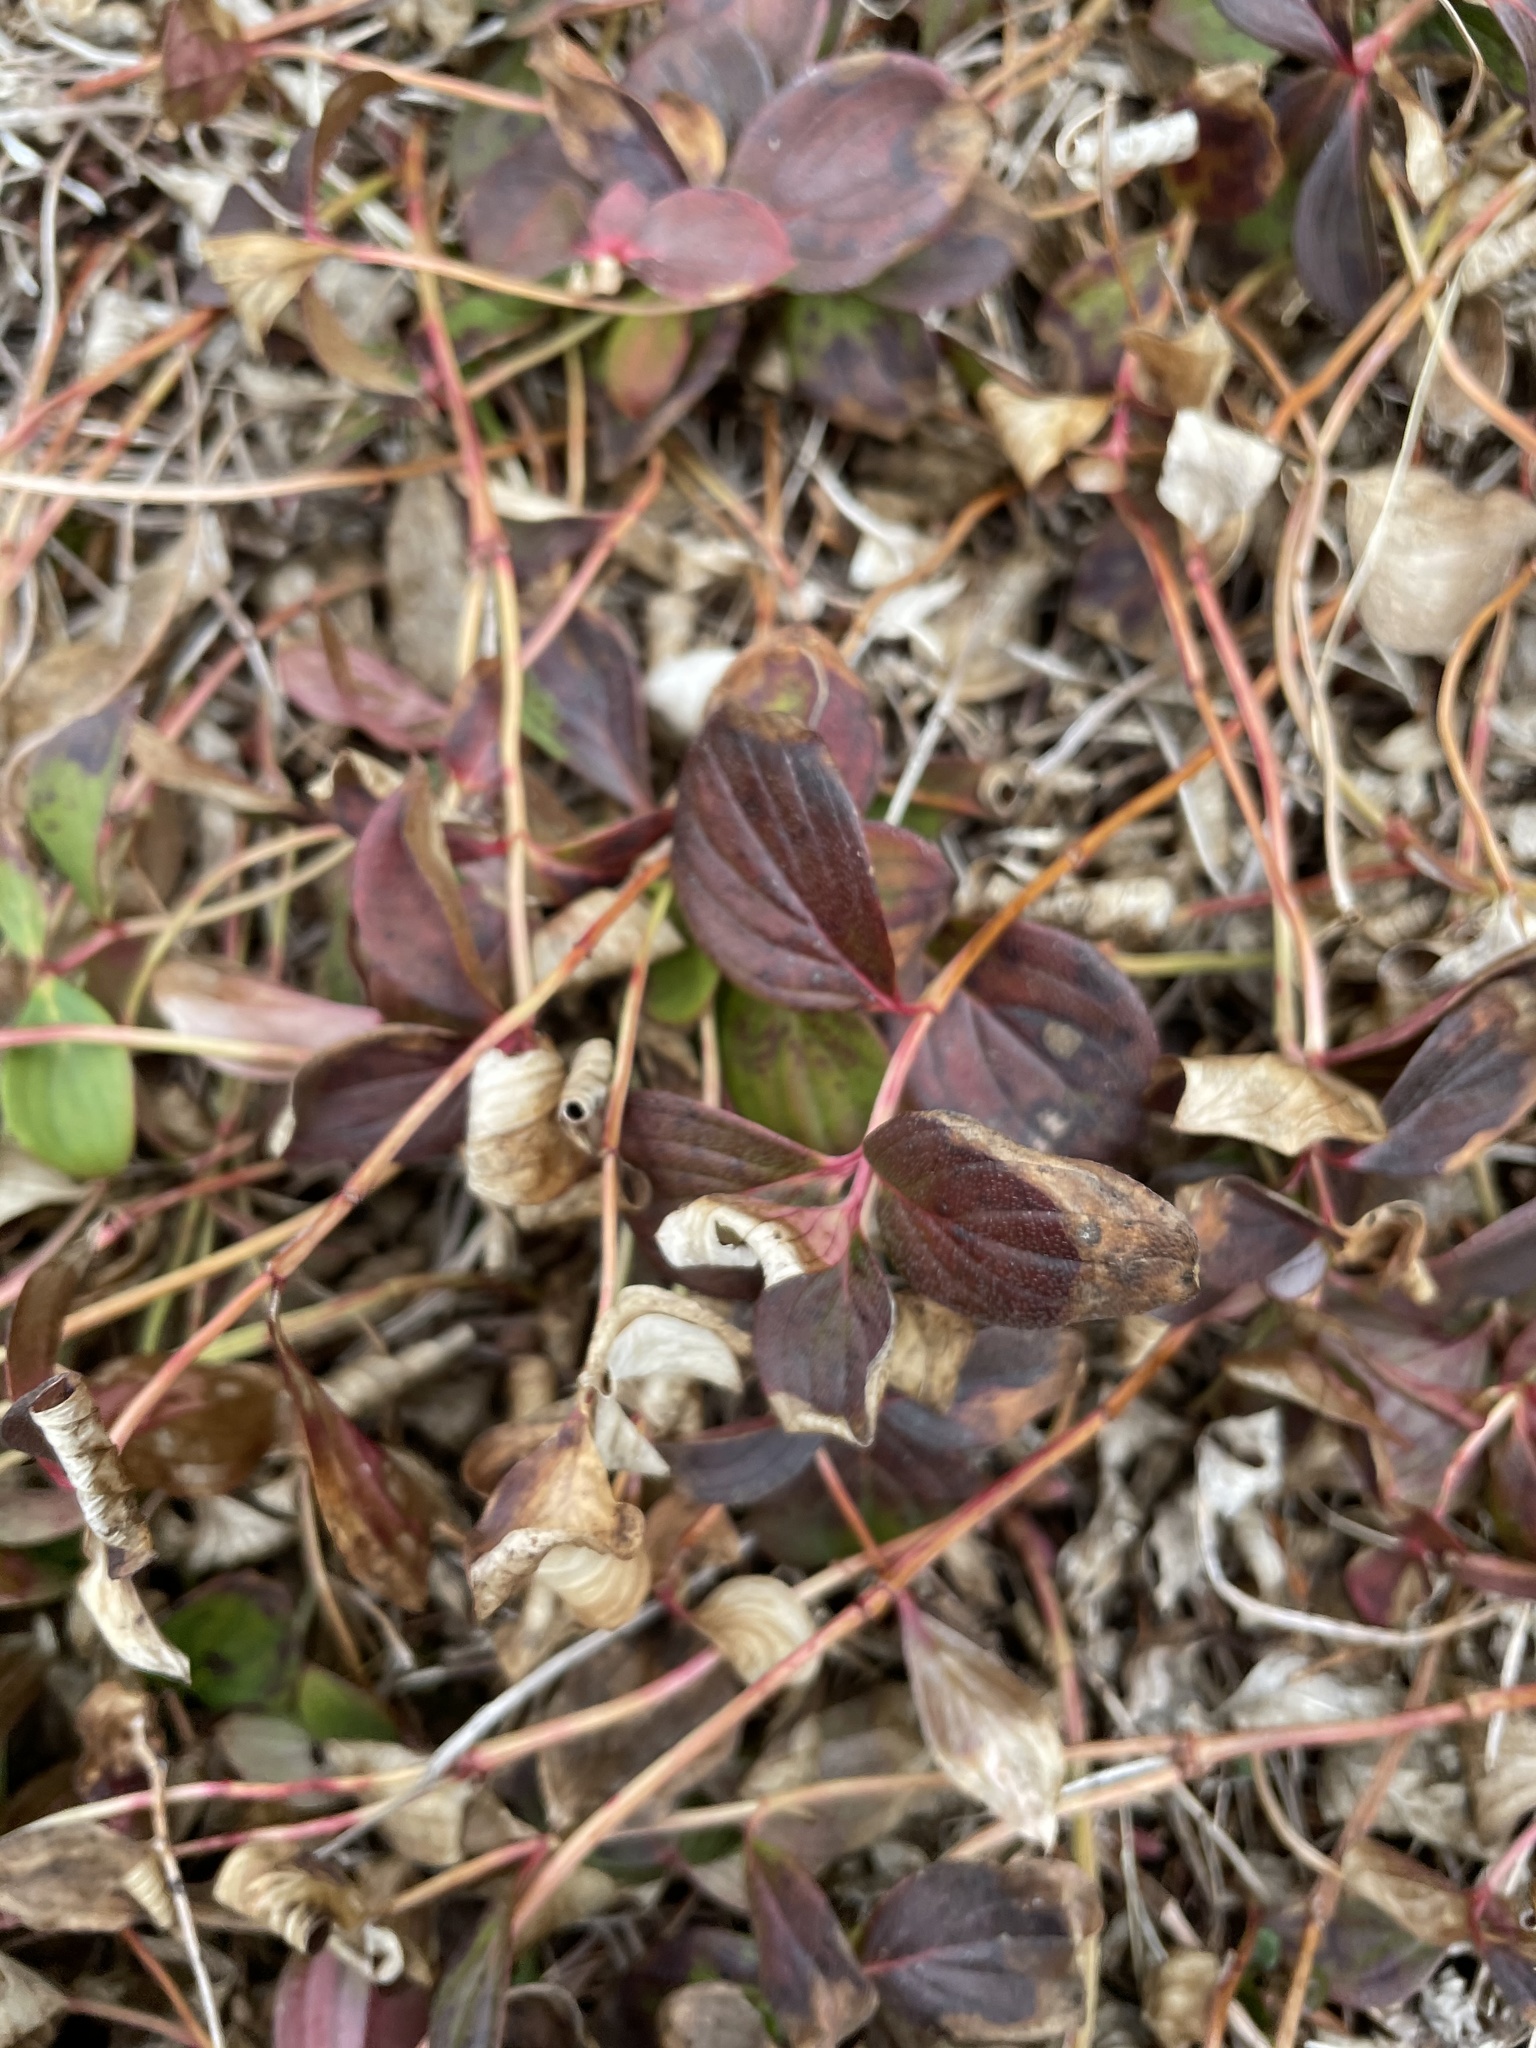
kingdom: Plantae
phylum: Tracheophyta
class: Magnoliopsida
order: Cornales
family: Cornaceae
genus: Cornus
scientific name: Cornus canadensis
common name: Creeping dogwood
